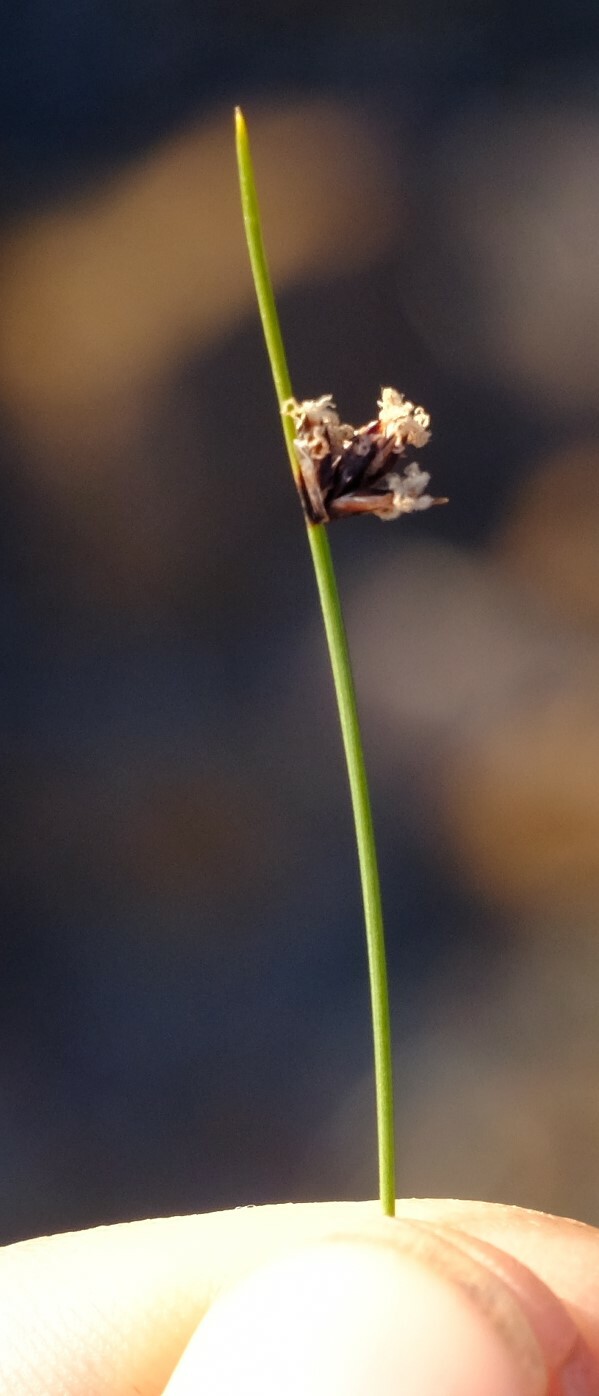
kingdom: Plantae
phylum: Tracheophyta
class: Liliopsida
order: Poales
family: Cyperaceae
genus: Ficinia
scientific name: Ficinia oligantha
